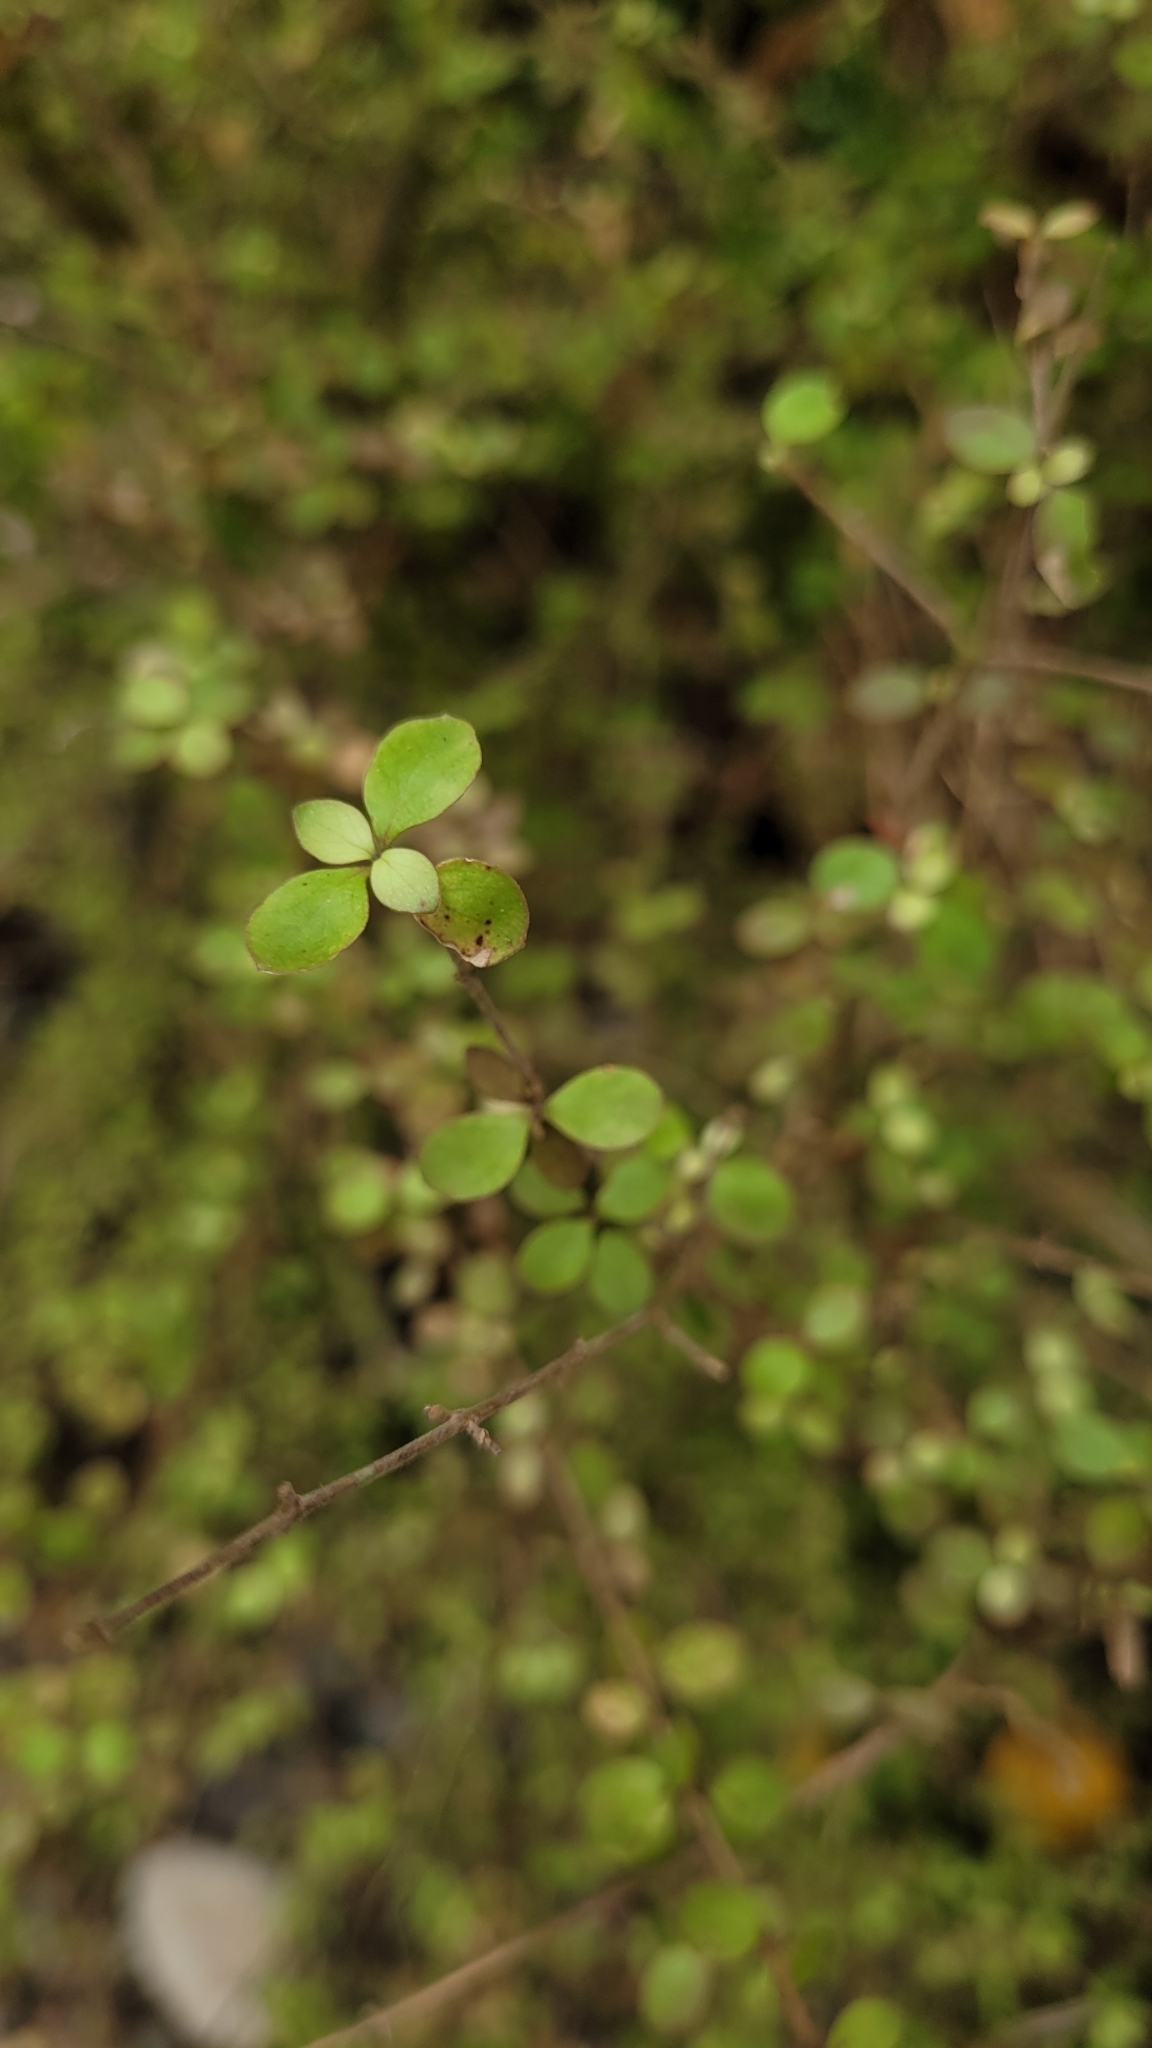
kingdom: Plantae
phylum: Tracheophyta
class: Magnoliopsida
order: Gentianales
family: Rubiaceae
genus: Coprosma
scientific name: Coprosma rhamnoides
